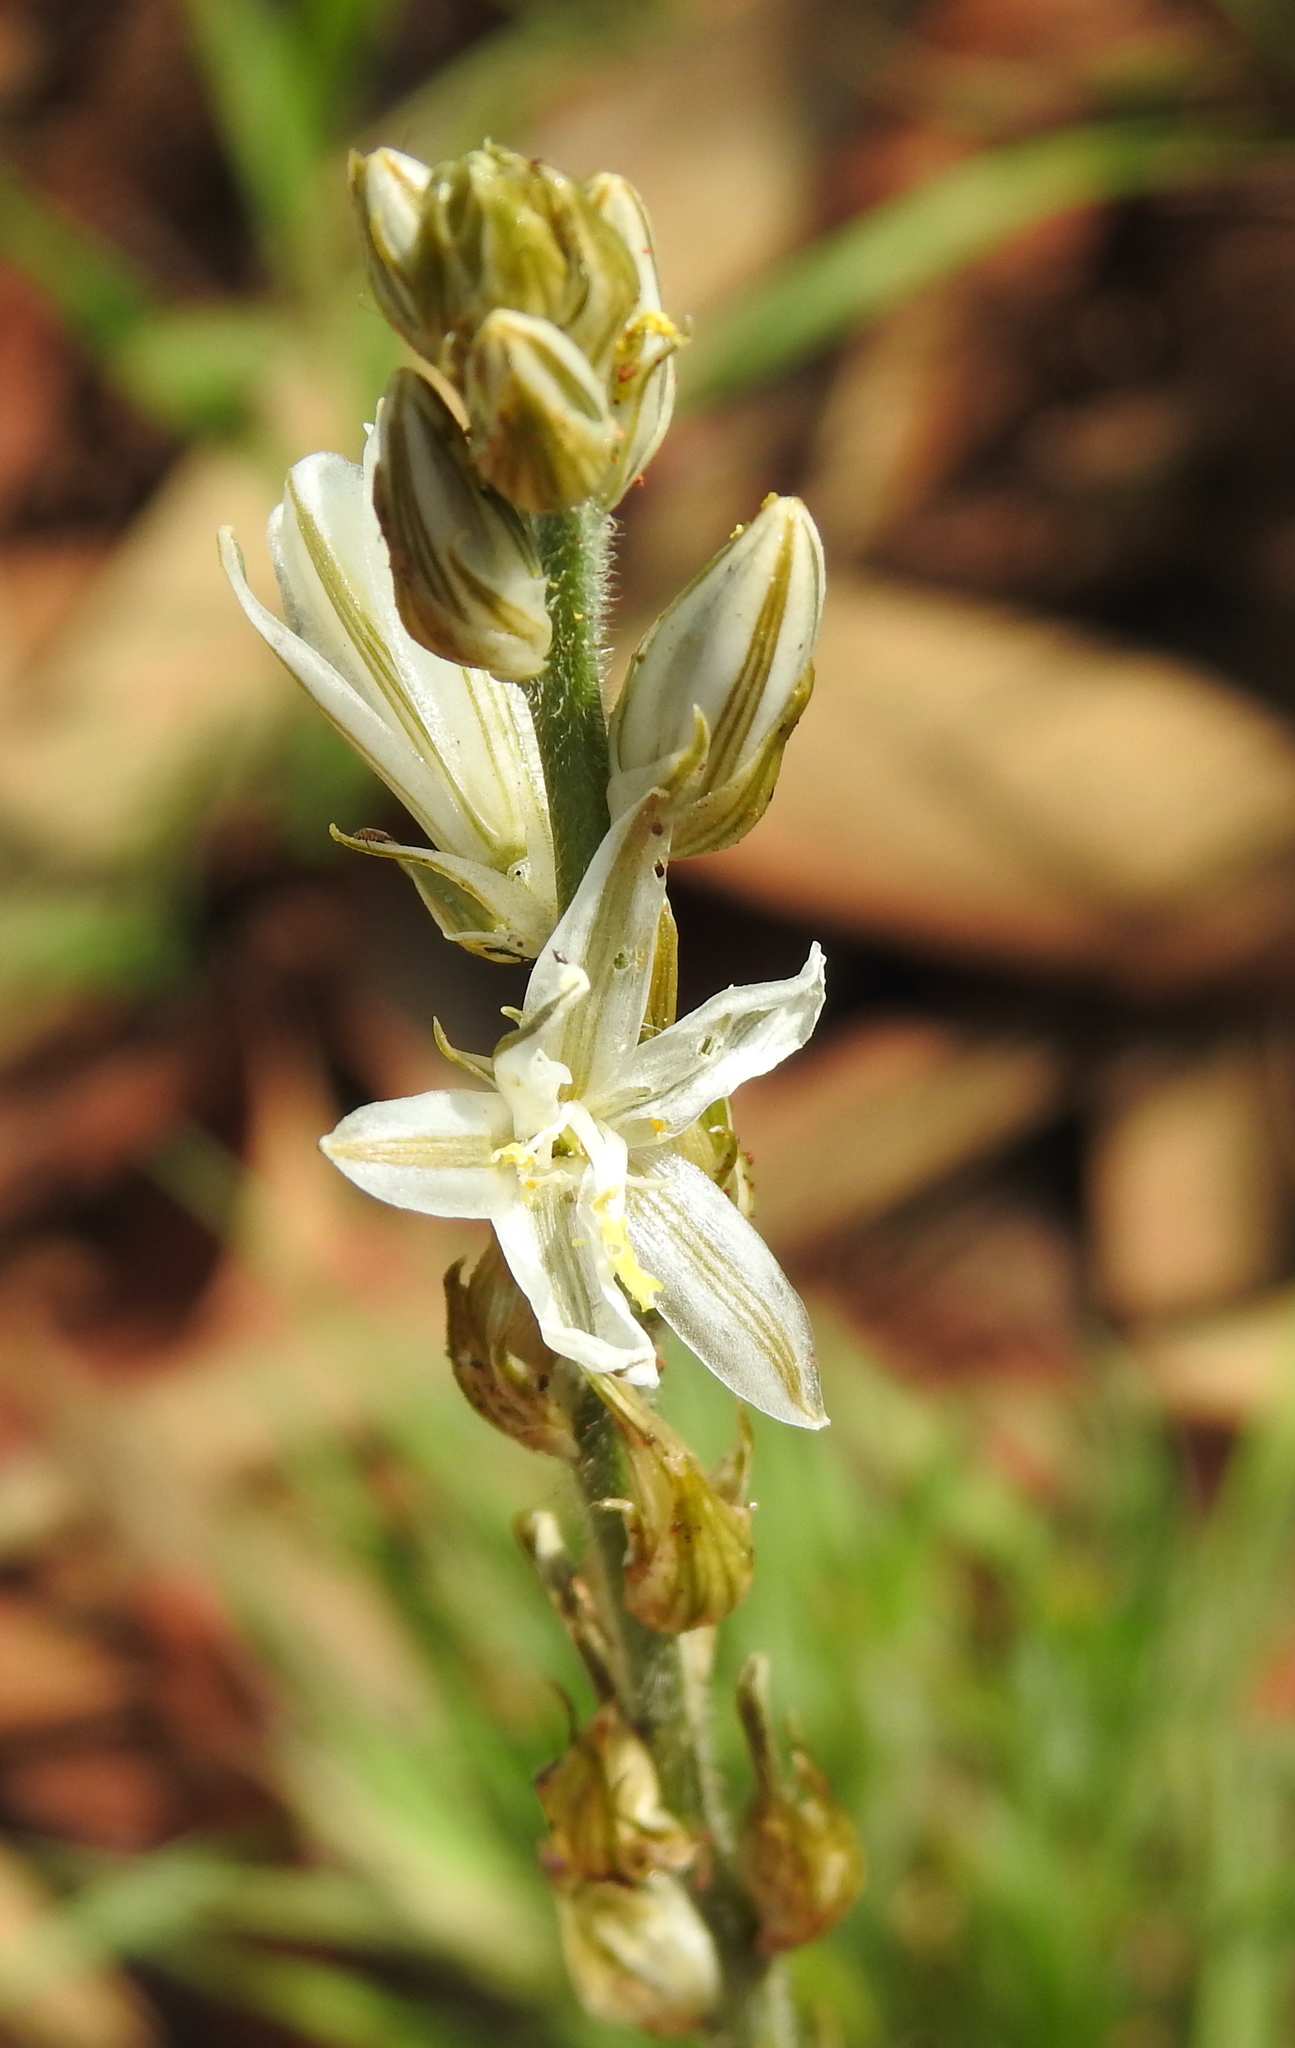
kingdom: Plantae
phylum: Tracheophyta
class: Liliopsida
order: Asparagales
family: Asparagaceae
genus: Chlorophytum
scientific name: Chlorophytum transvaalense
